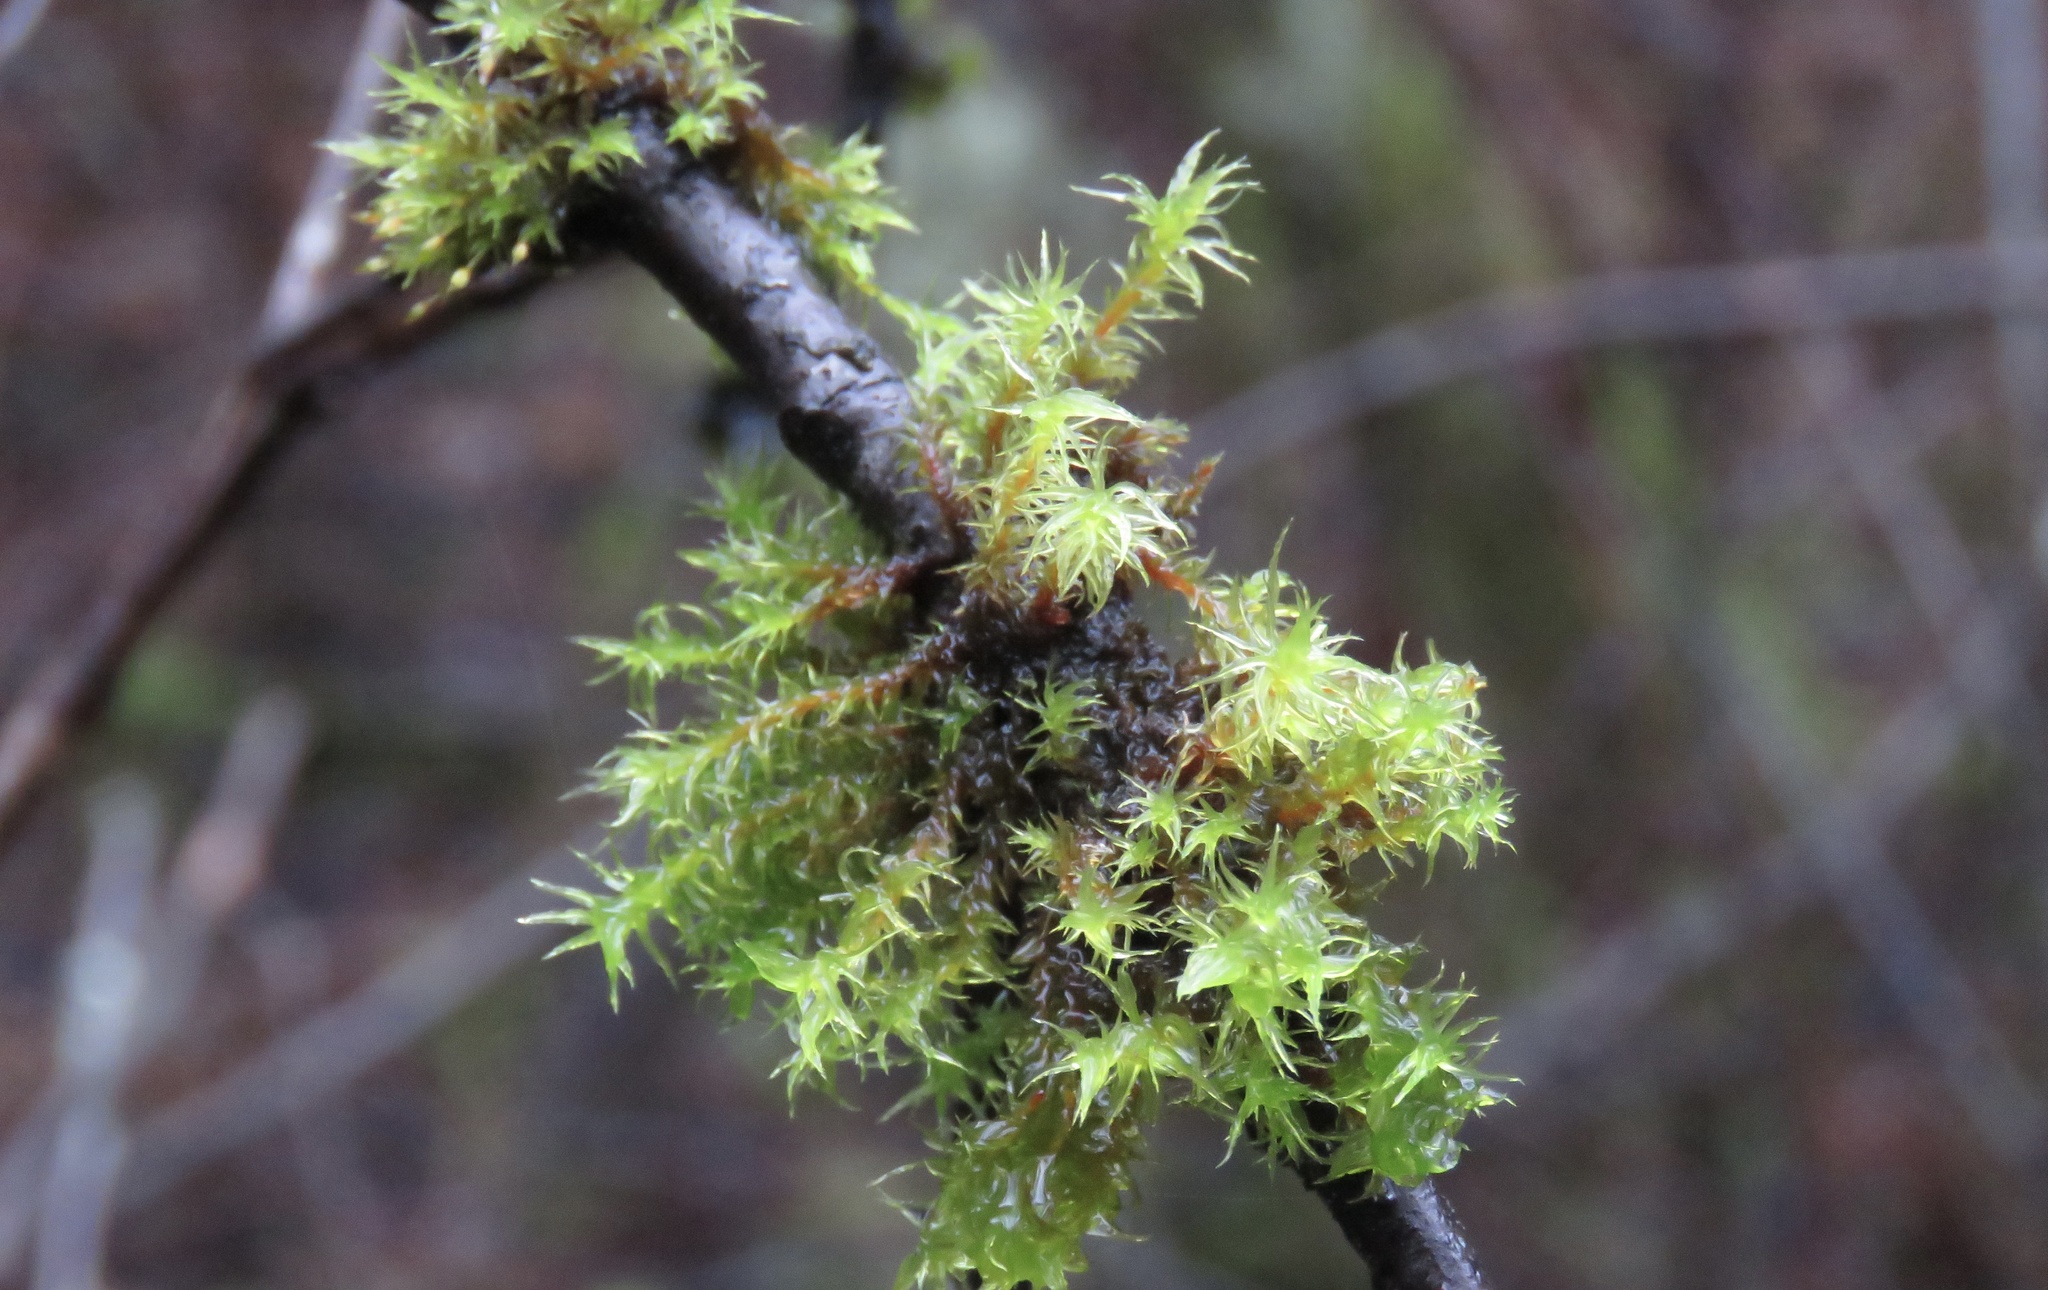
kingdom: Plantae
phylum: Bryophyta
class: Bryopsida
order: Orthotrichales
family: Orthotrichaceae
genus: Pulvigera
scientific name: Pulvigera lyellii
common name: Lyell's bristle-moss
